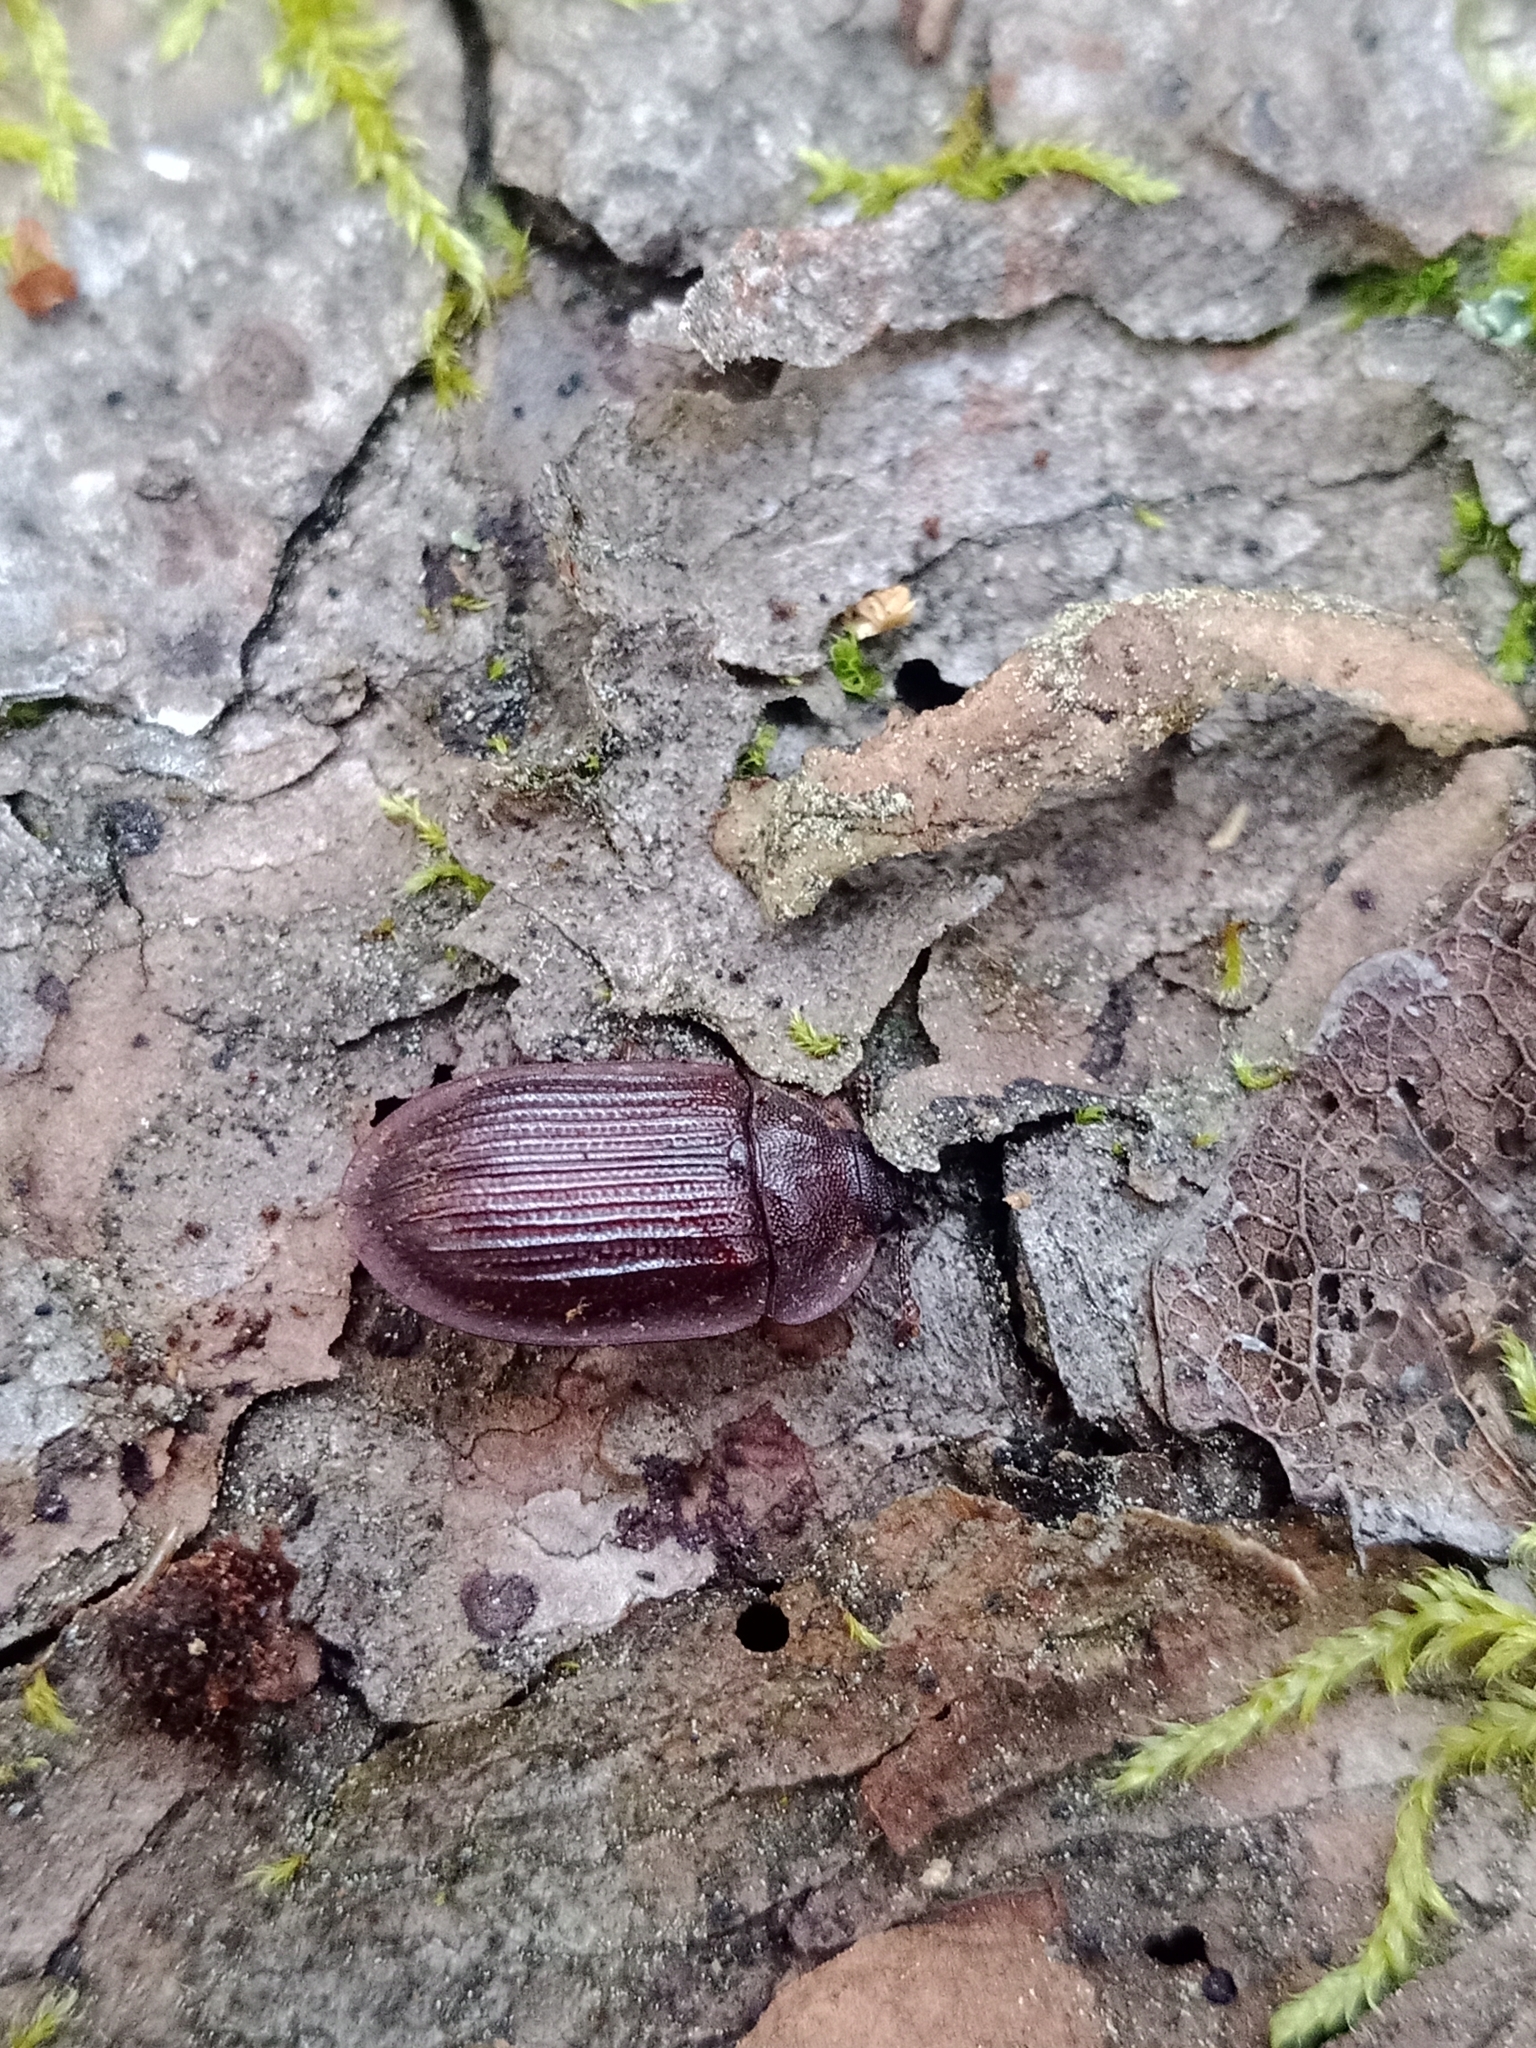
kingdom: Animalia
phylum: Arthropoda
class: Insecta
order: Coleoptera
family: Trogossitidae
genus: Peltis
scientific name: Peltis ferruginea
